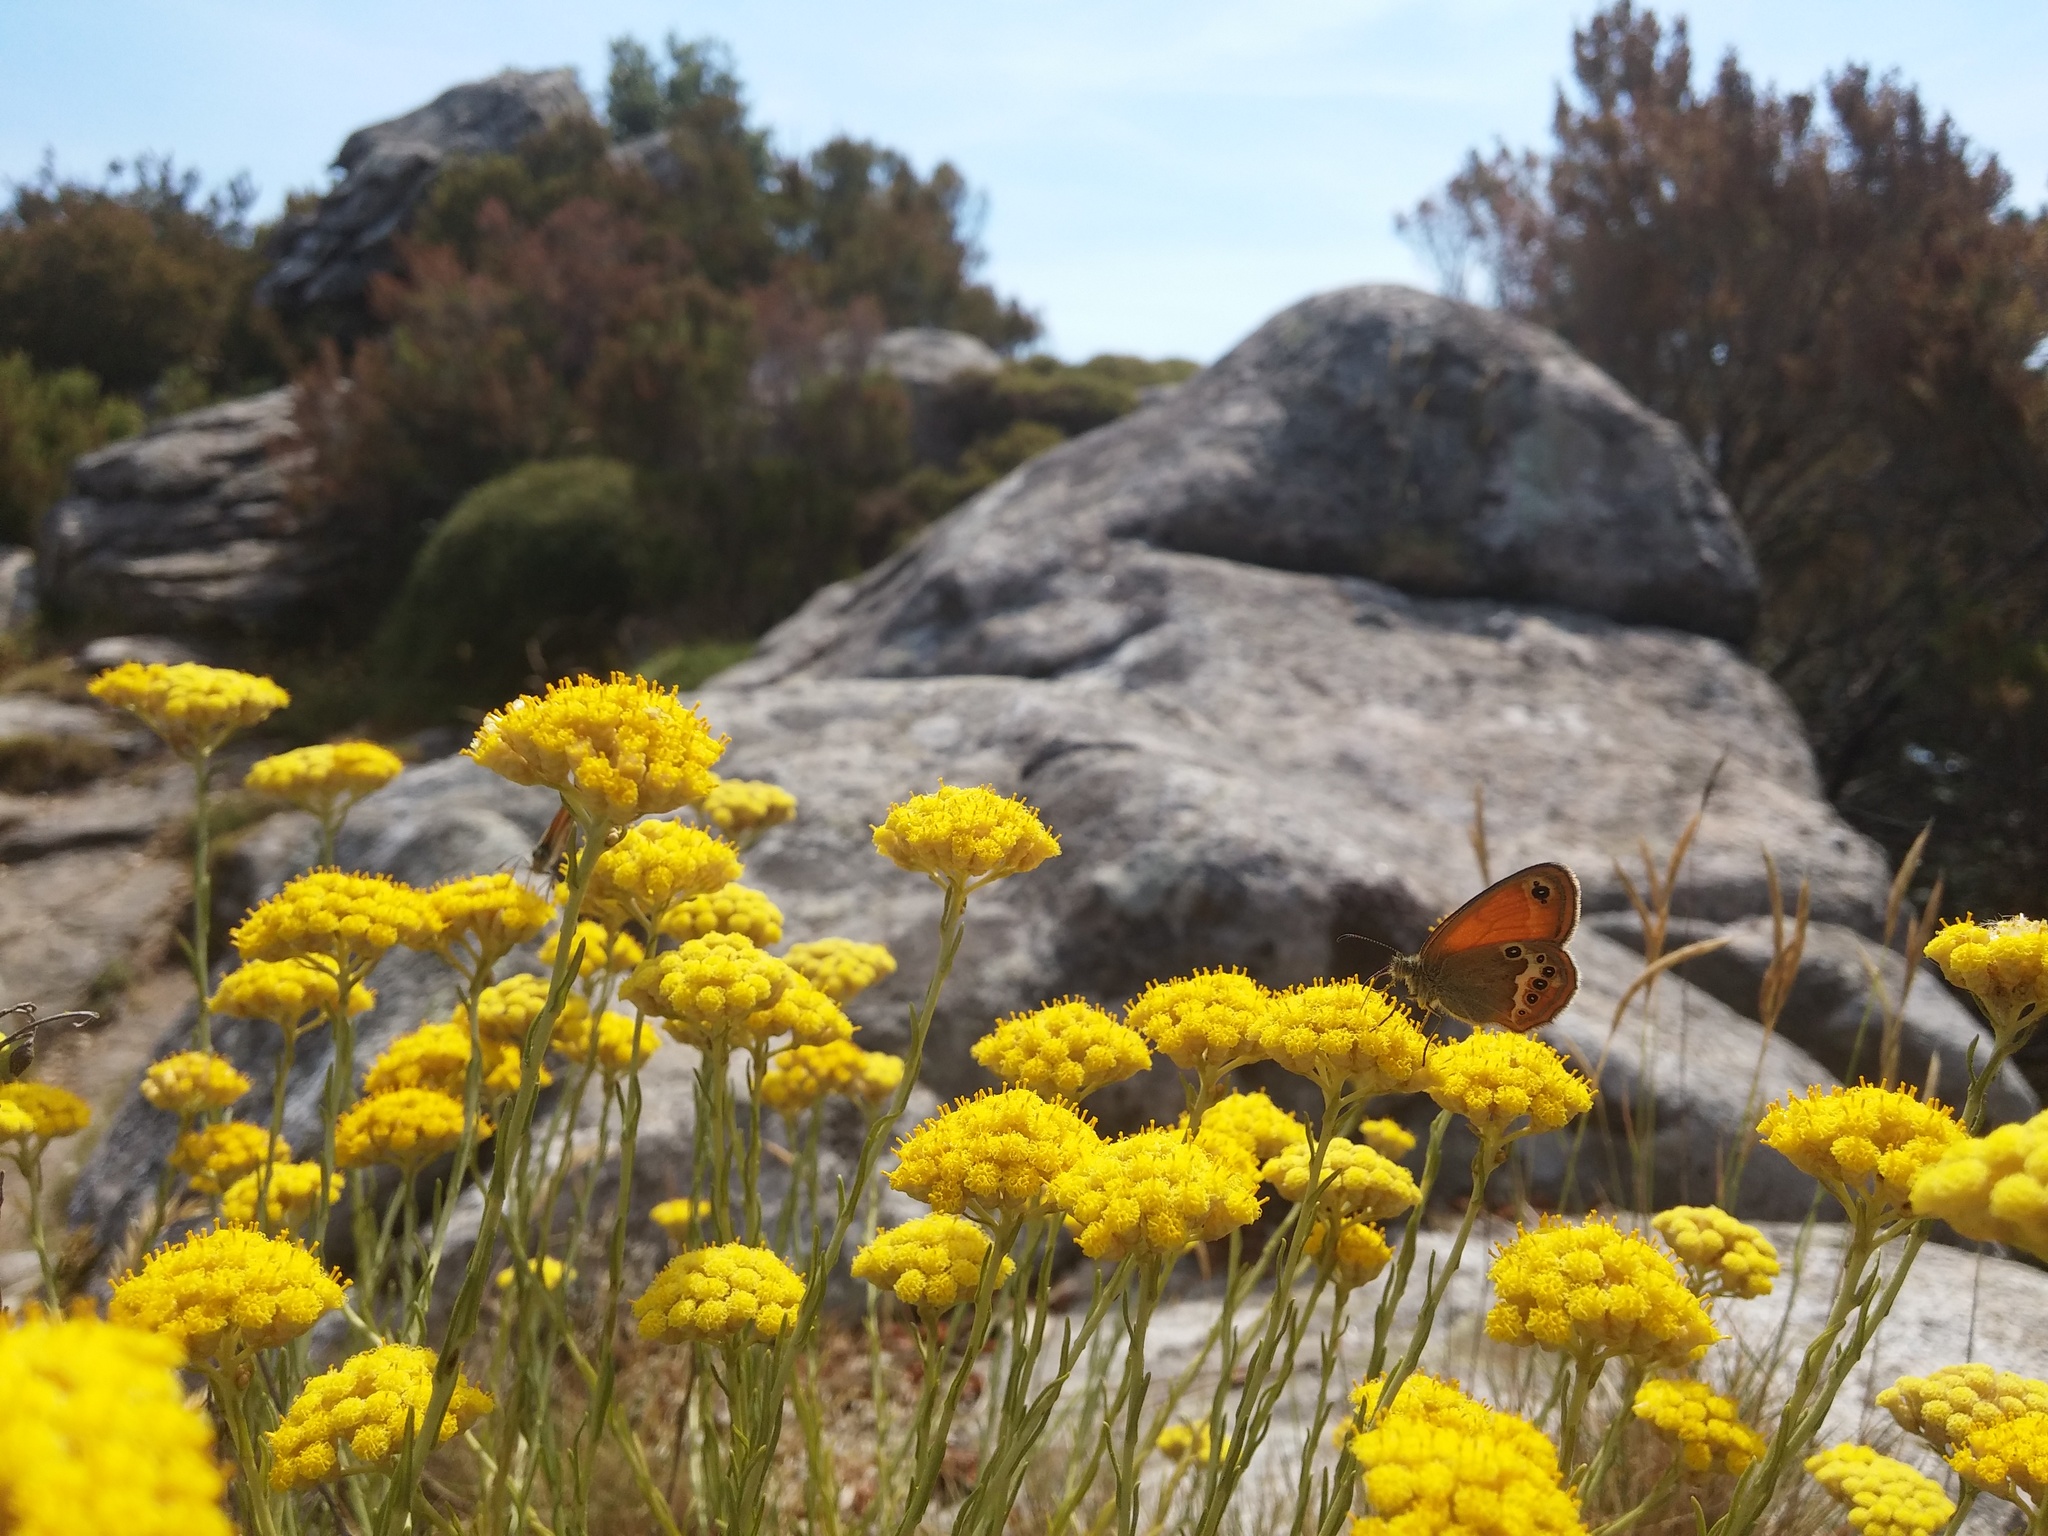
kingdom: Animalia
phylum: Arthropoda
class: Insecta
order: Lepidoptera
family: Nymphalidae
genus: Coenonympha
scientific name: Coenonympha corinna
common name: Corsican heath
